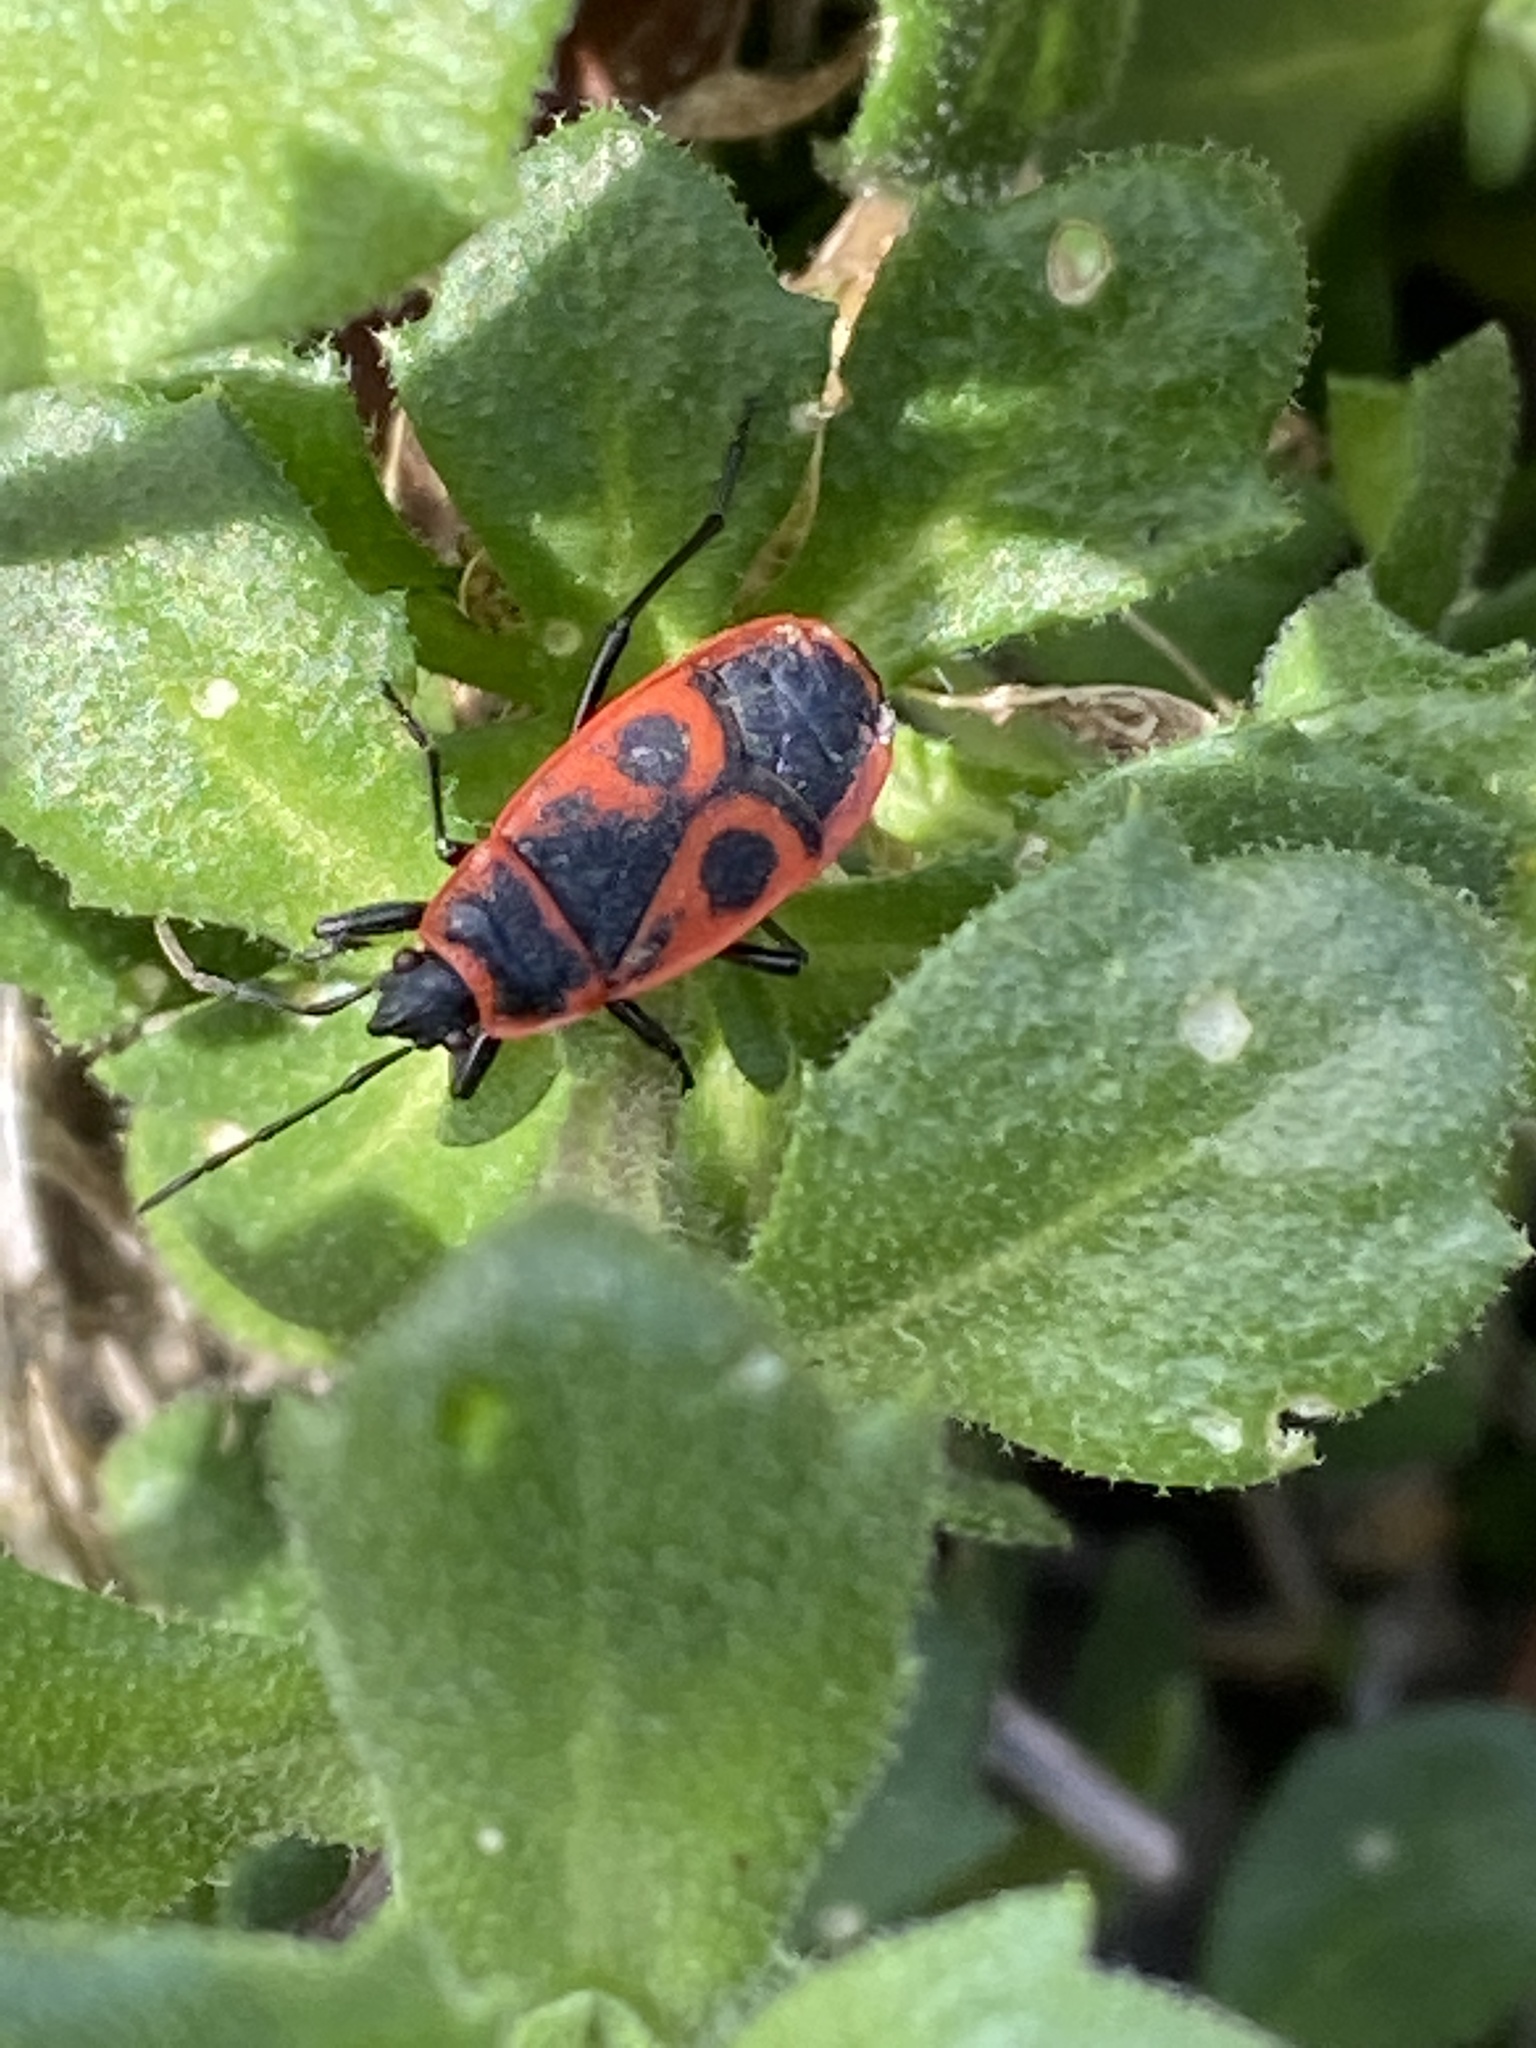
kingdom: Animalia
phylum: Arthropoda
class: Insecta
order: Hemiptera
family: Pyrrhocoridae
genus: Pyrrhocoris
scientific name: Pyrrhocoris apterus
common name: Firebug
